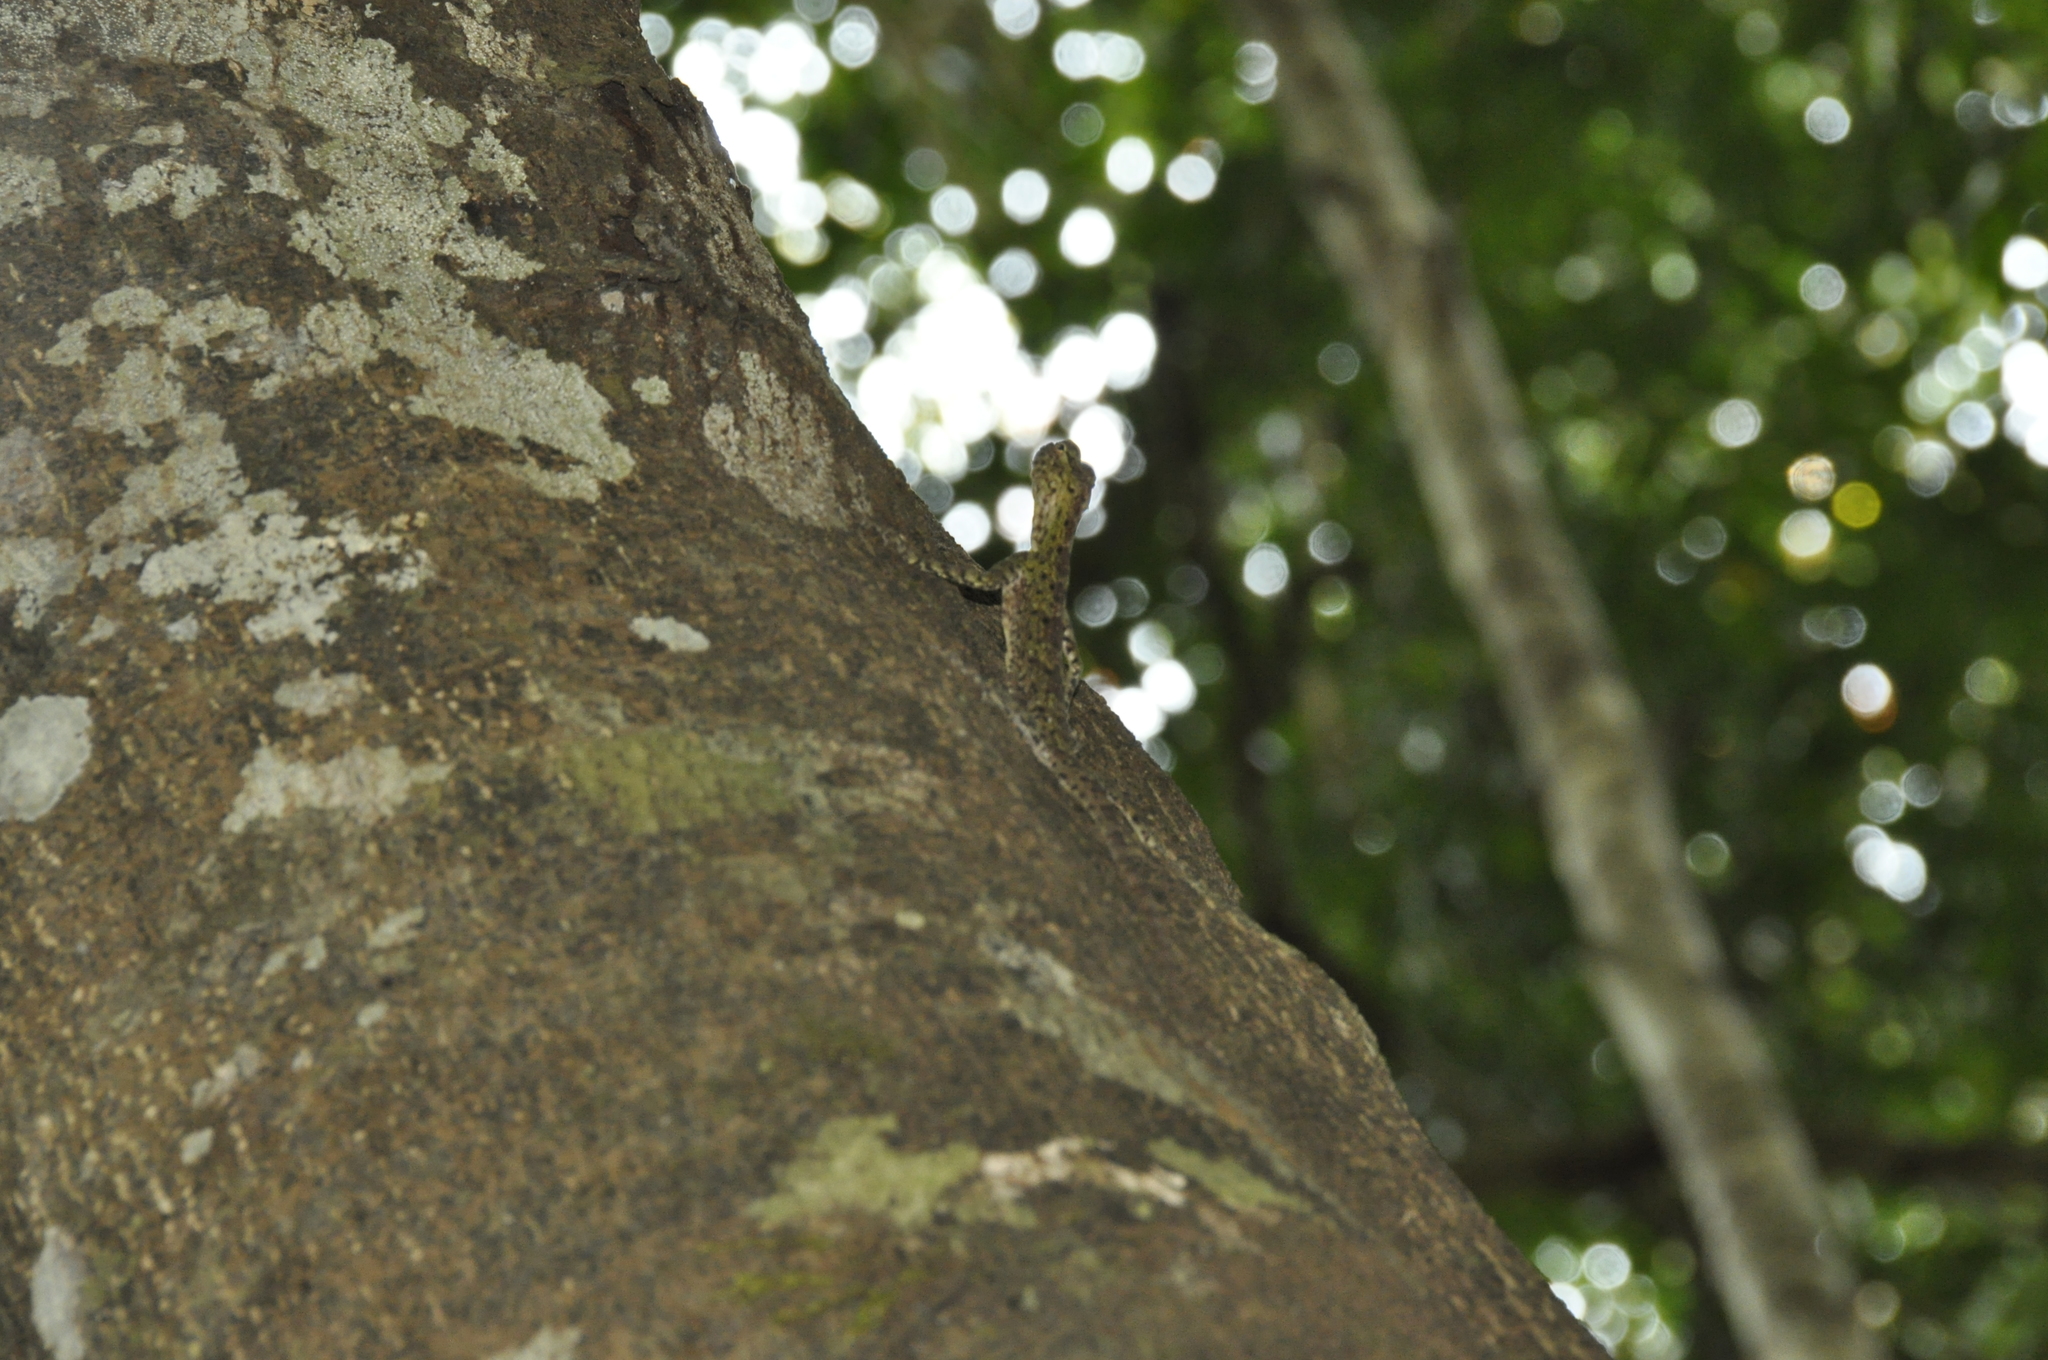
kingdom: Animalia
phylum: Chordata
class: Squamata
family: Agamidae
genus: Draco
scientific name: Draco indochinensis
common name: Indochinese flying lizard
